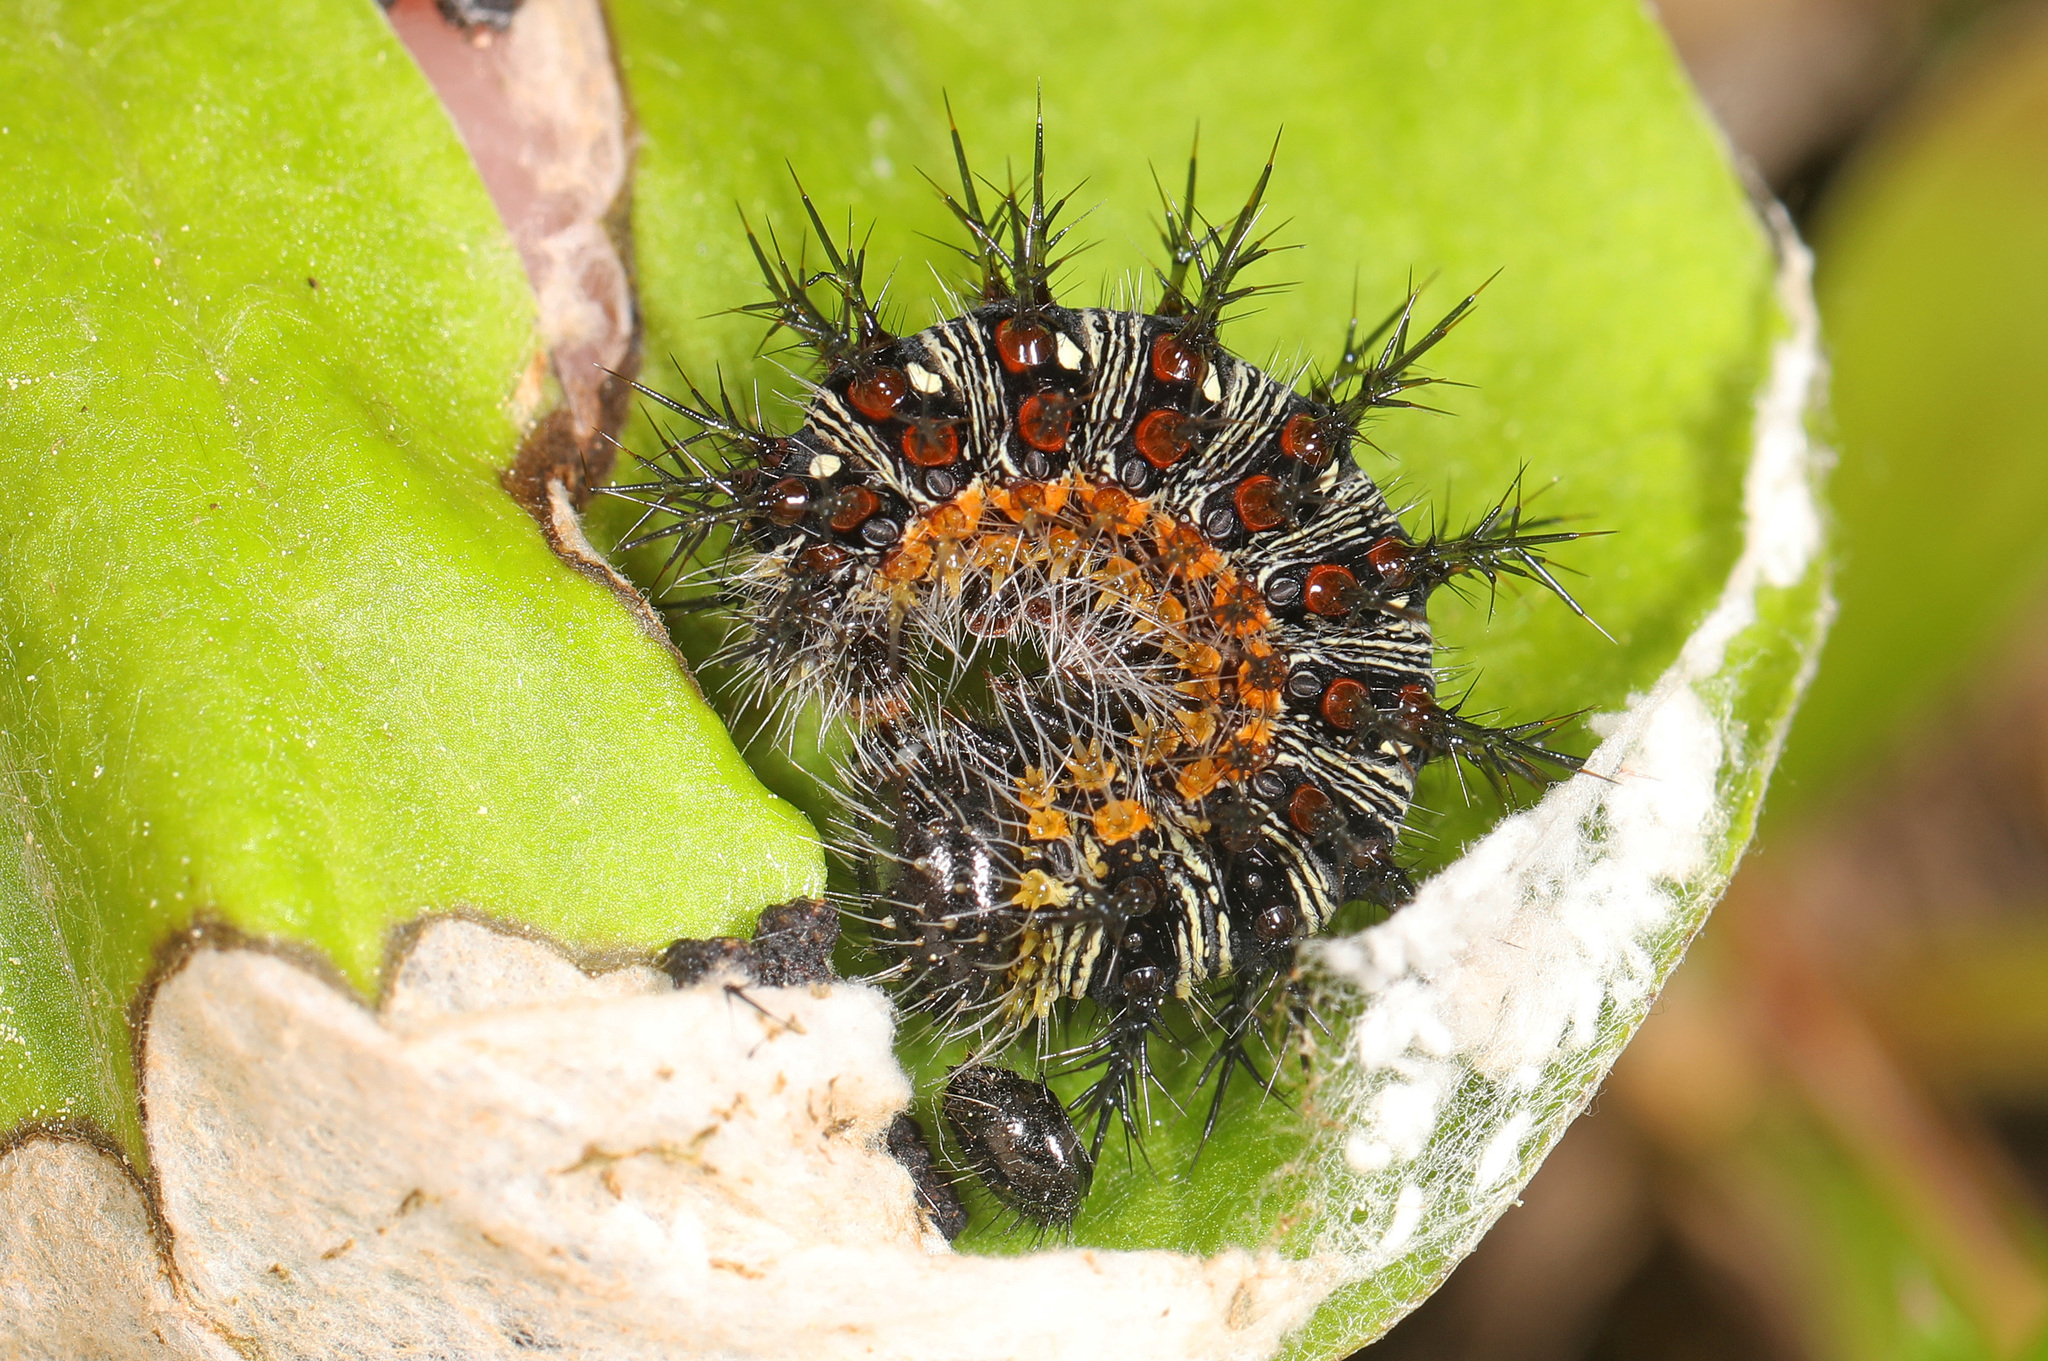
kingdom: Animalia
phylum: Arthropoda
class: Insecta
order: Lepidoptera
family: Nymphalidae
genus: Vanessa
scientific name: Vanessa virginiensis
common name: American lady
